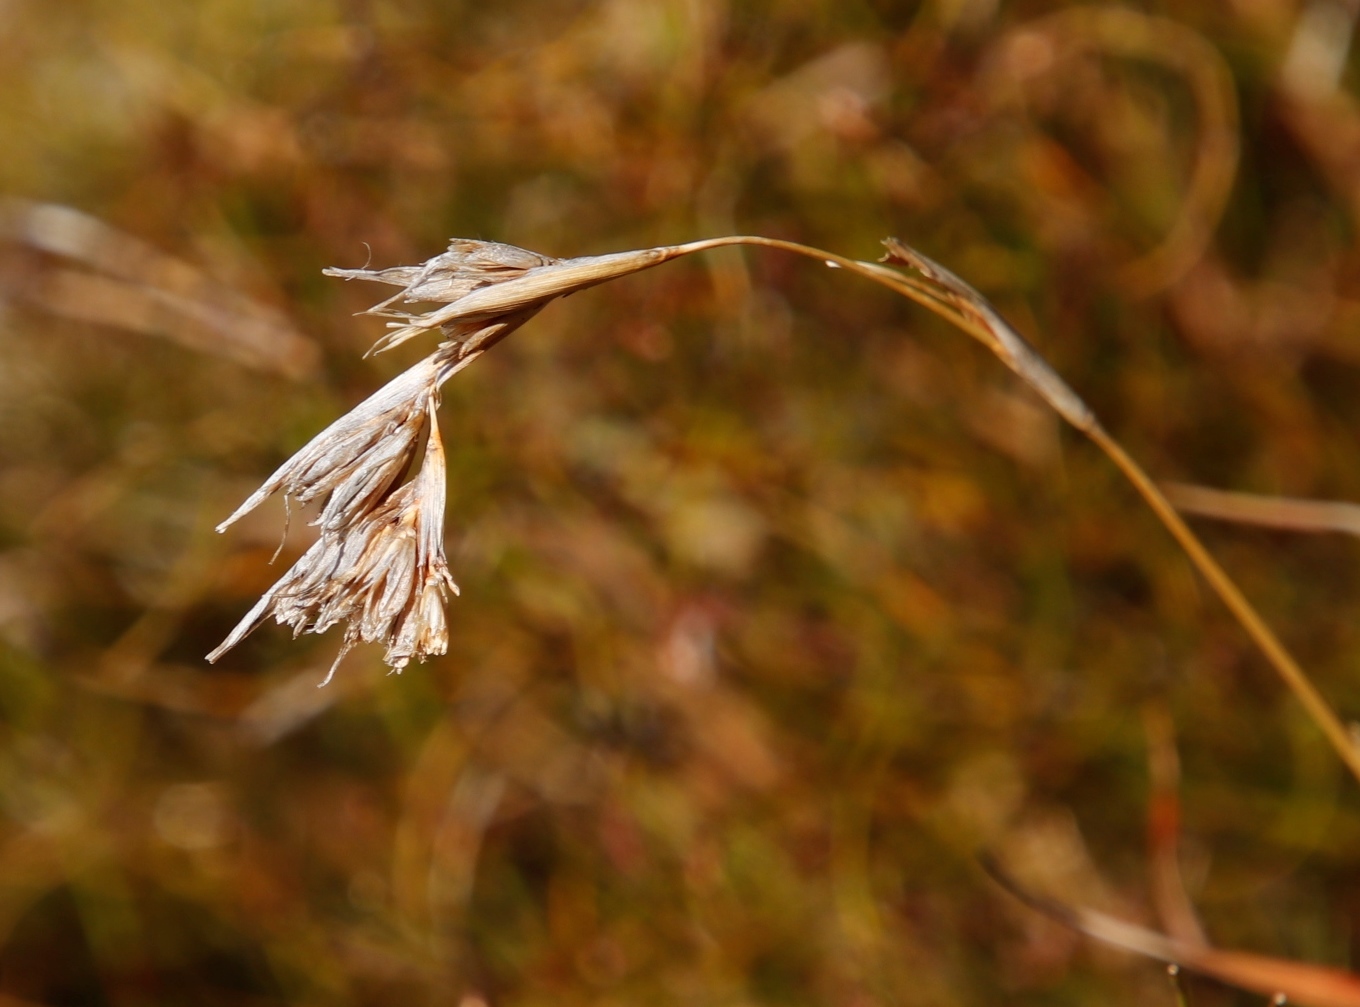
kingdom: Plantae
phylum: Tracheophyta
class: Liliopsida
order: Poales
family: Poaceae
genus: Themeda
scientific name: Themeda triandra
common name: Kangaroo grass
